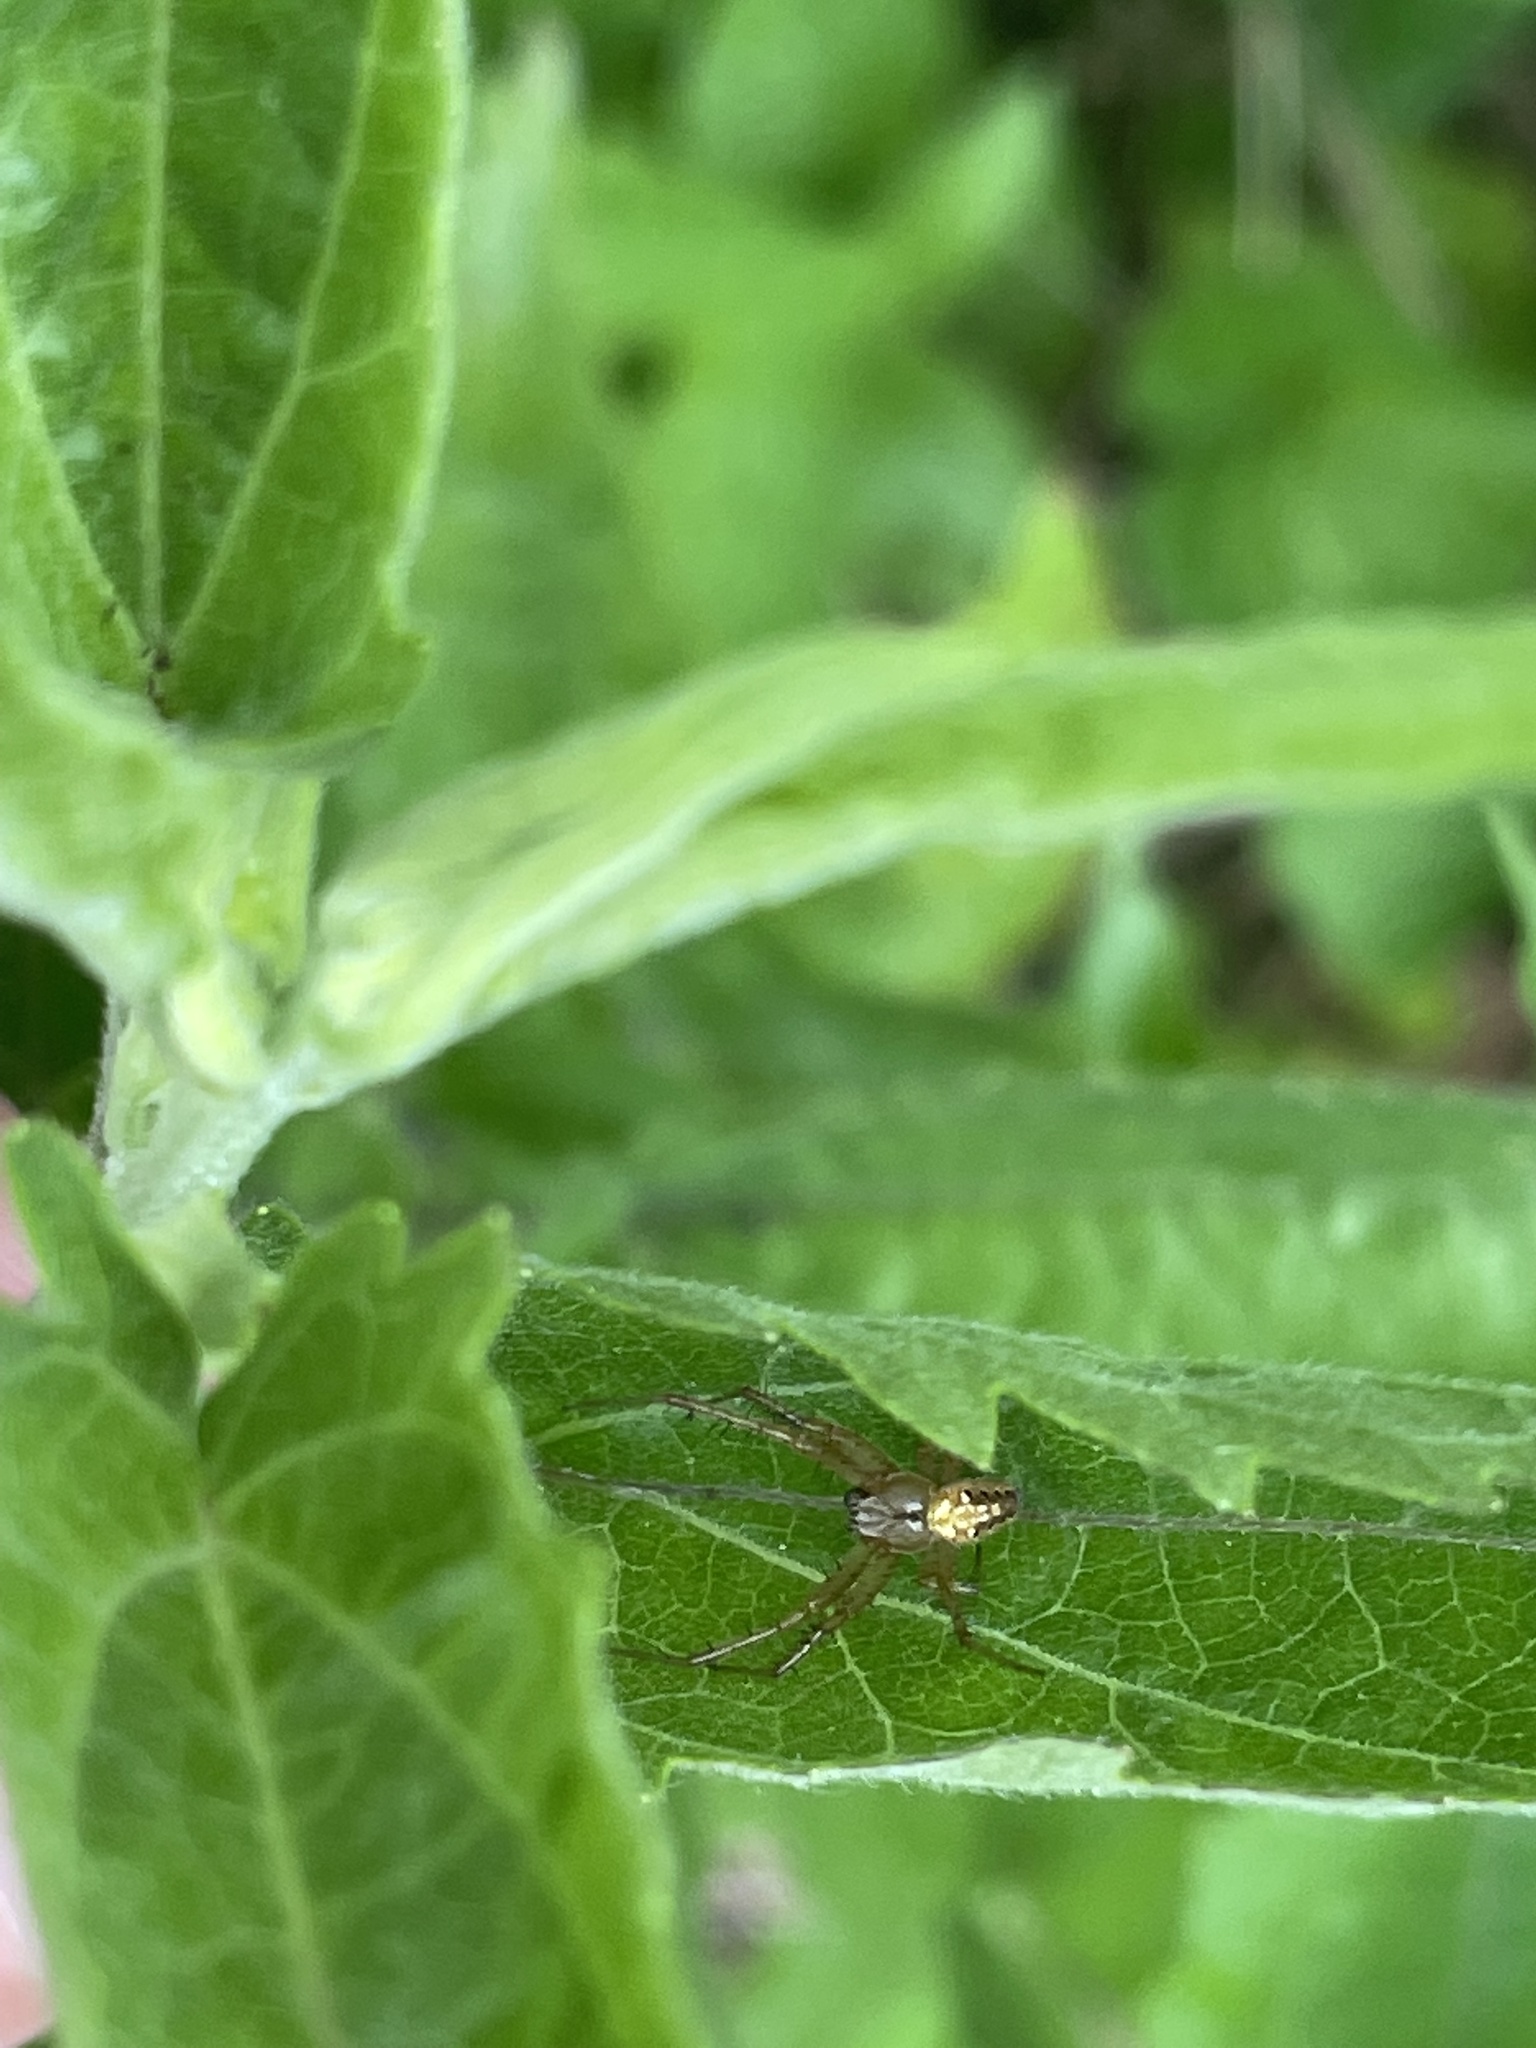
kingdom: Animalia
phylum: Arthropoda
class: Arachnida
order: Araneae
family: Araneidae
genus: Neoscona
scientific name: Neoscona arabesca
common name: Orb weavers
